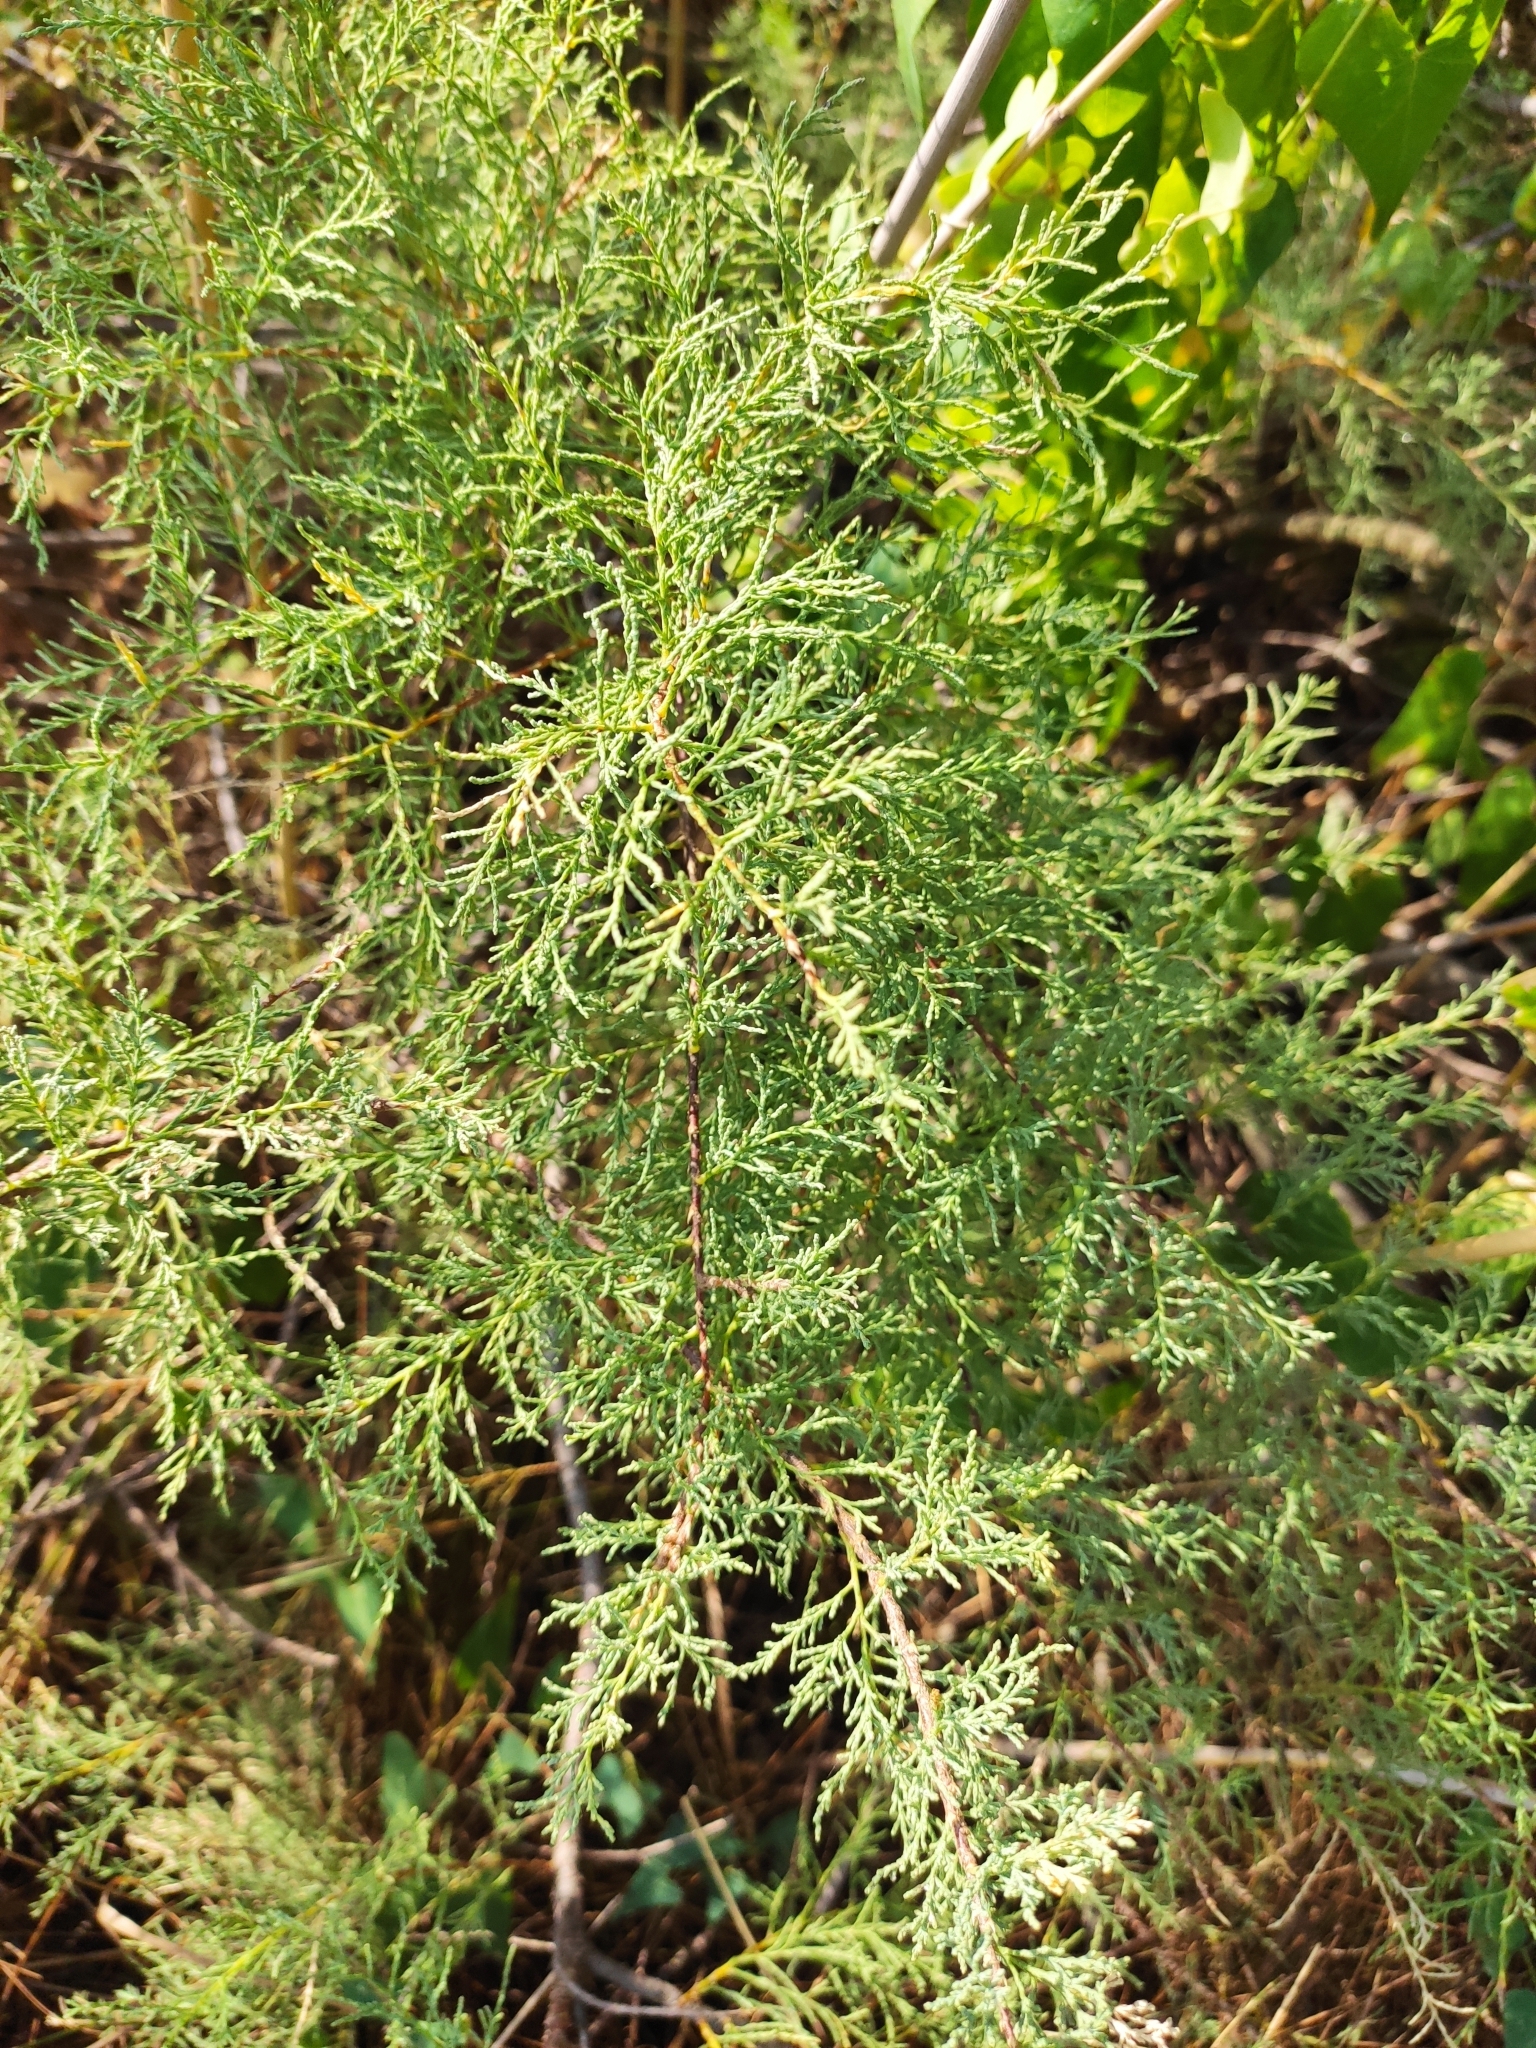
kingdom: Plantae
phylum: Tracheophyta
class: Magnoliopsida
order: Caryophyllales
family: Tamaricaceae
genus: Tamarix
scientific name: Tamarix ramosissima
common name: Pink tamarisk
